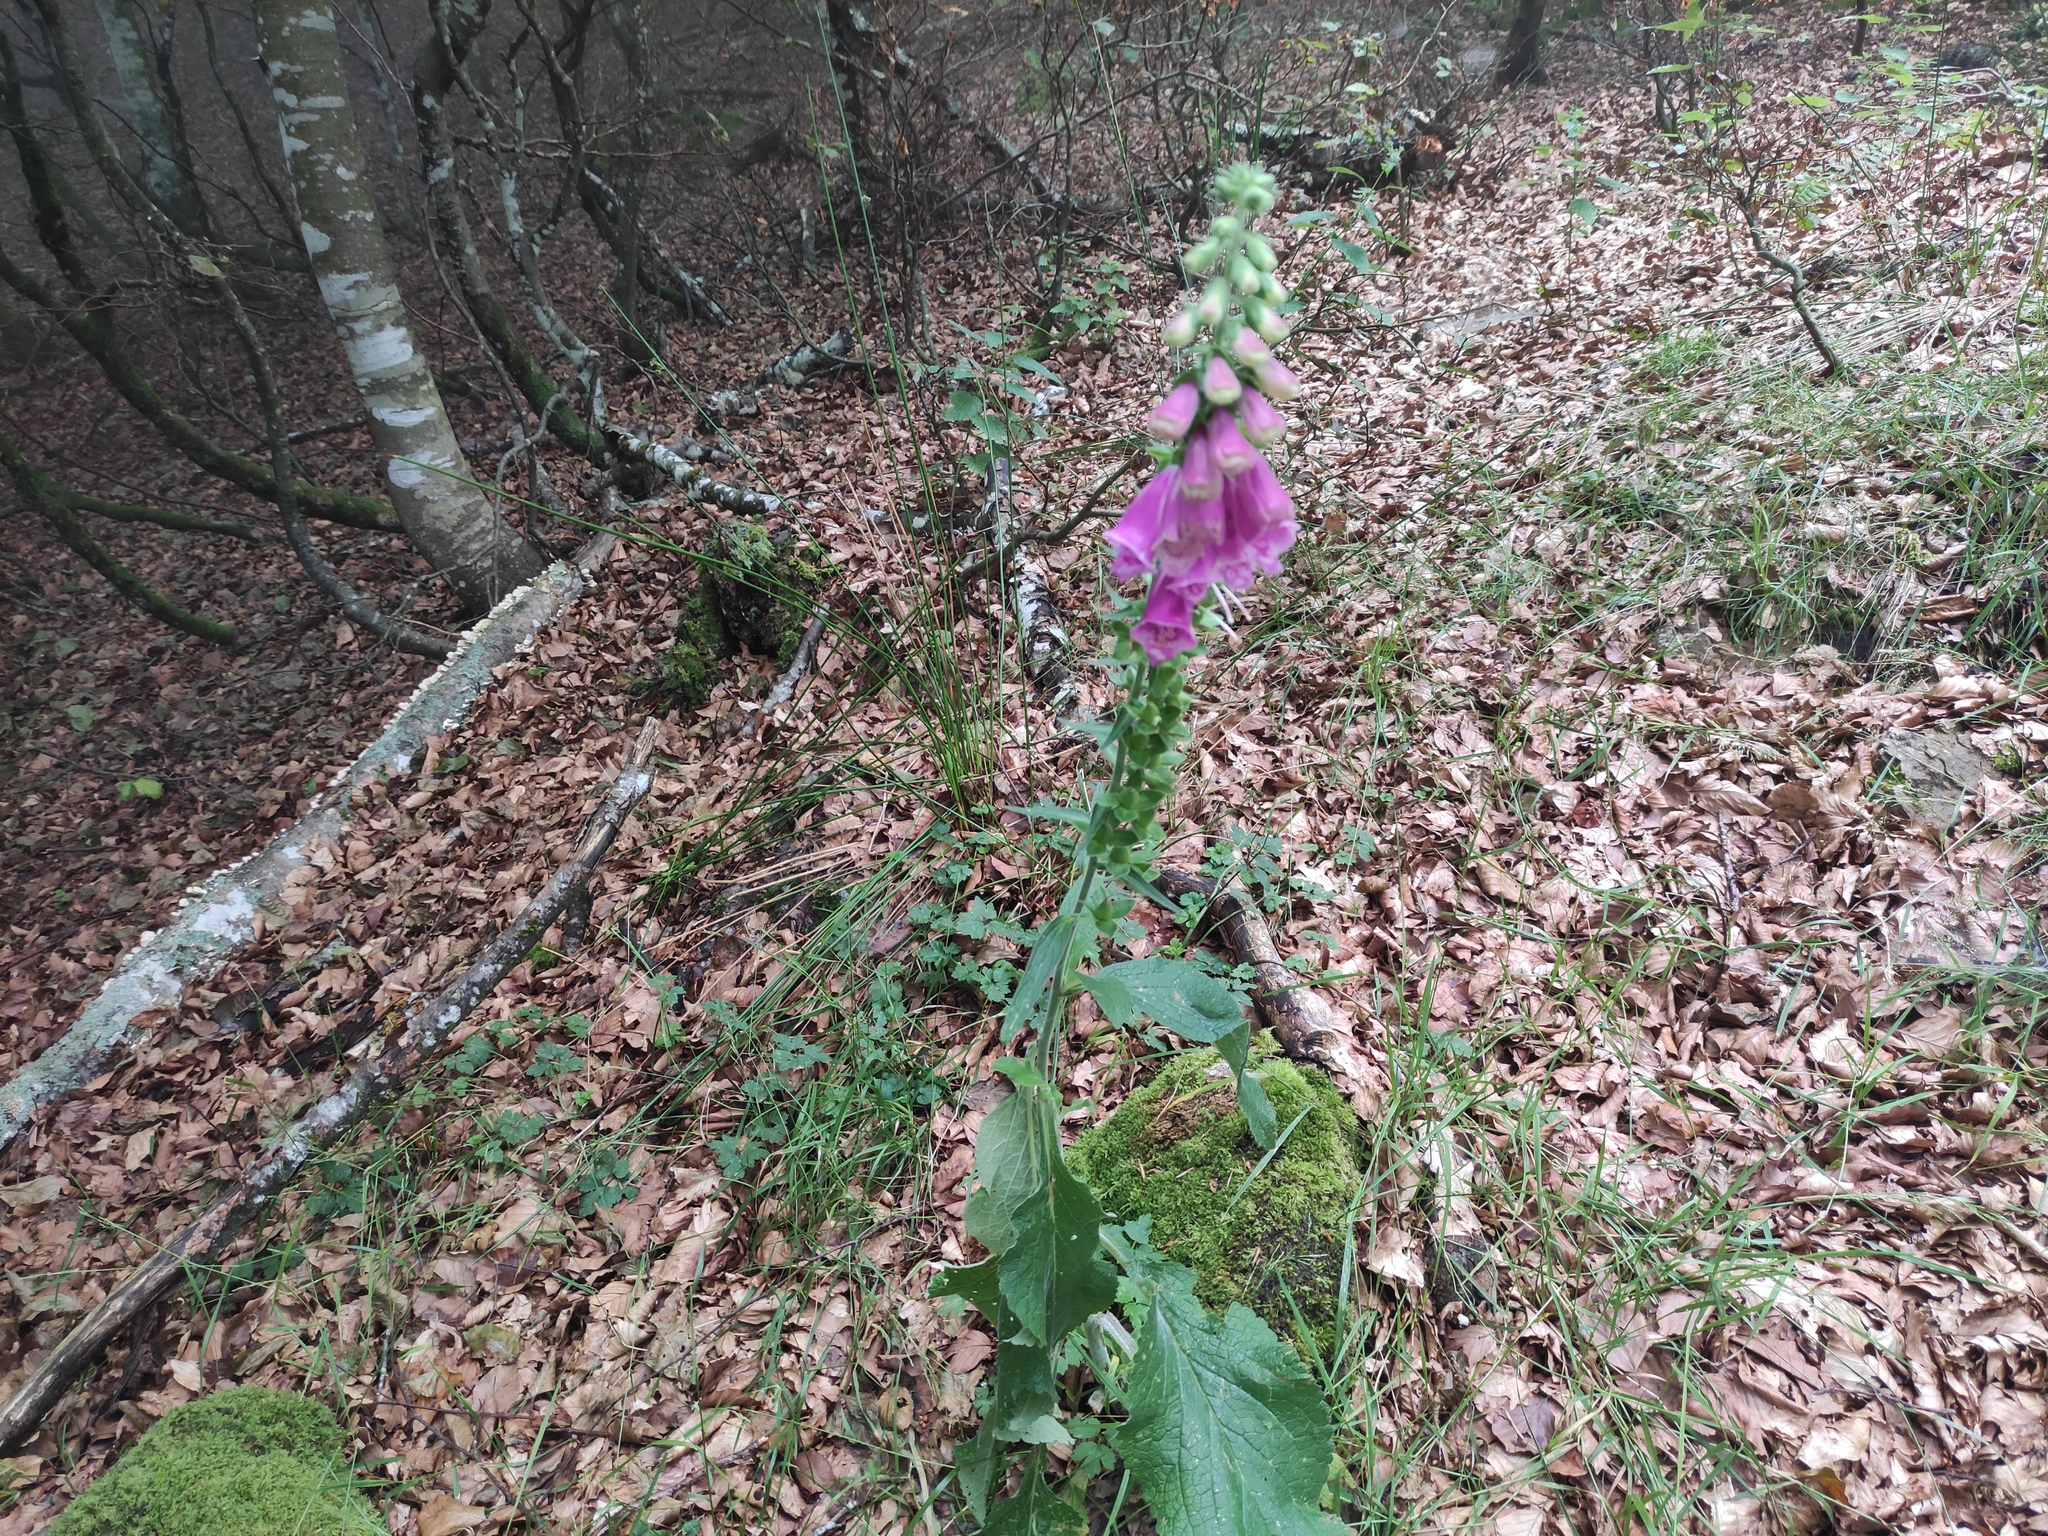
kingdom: Plantae
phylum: Tracheophyta
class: Magnoliopsida
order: Lamiales
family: Plantaginaceae
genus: Digitalis
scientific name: Digitalis purpurea
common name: Foxglove
